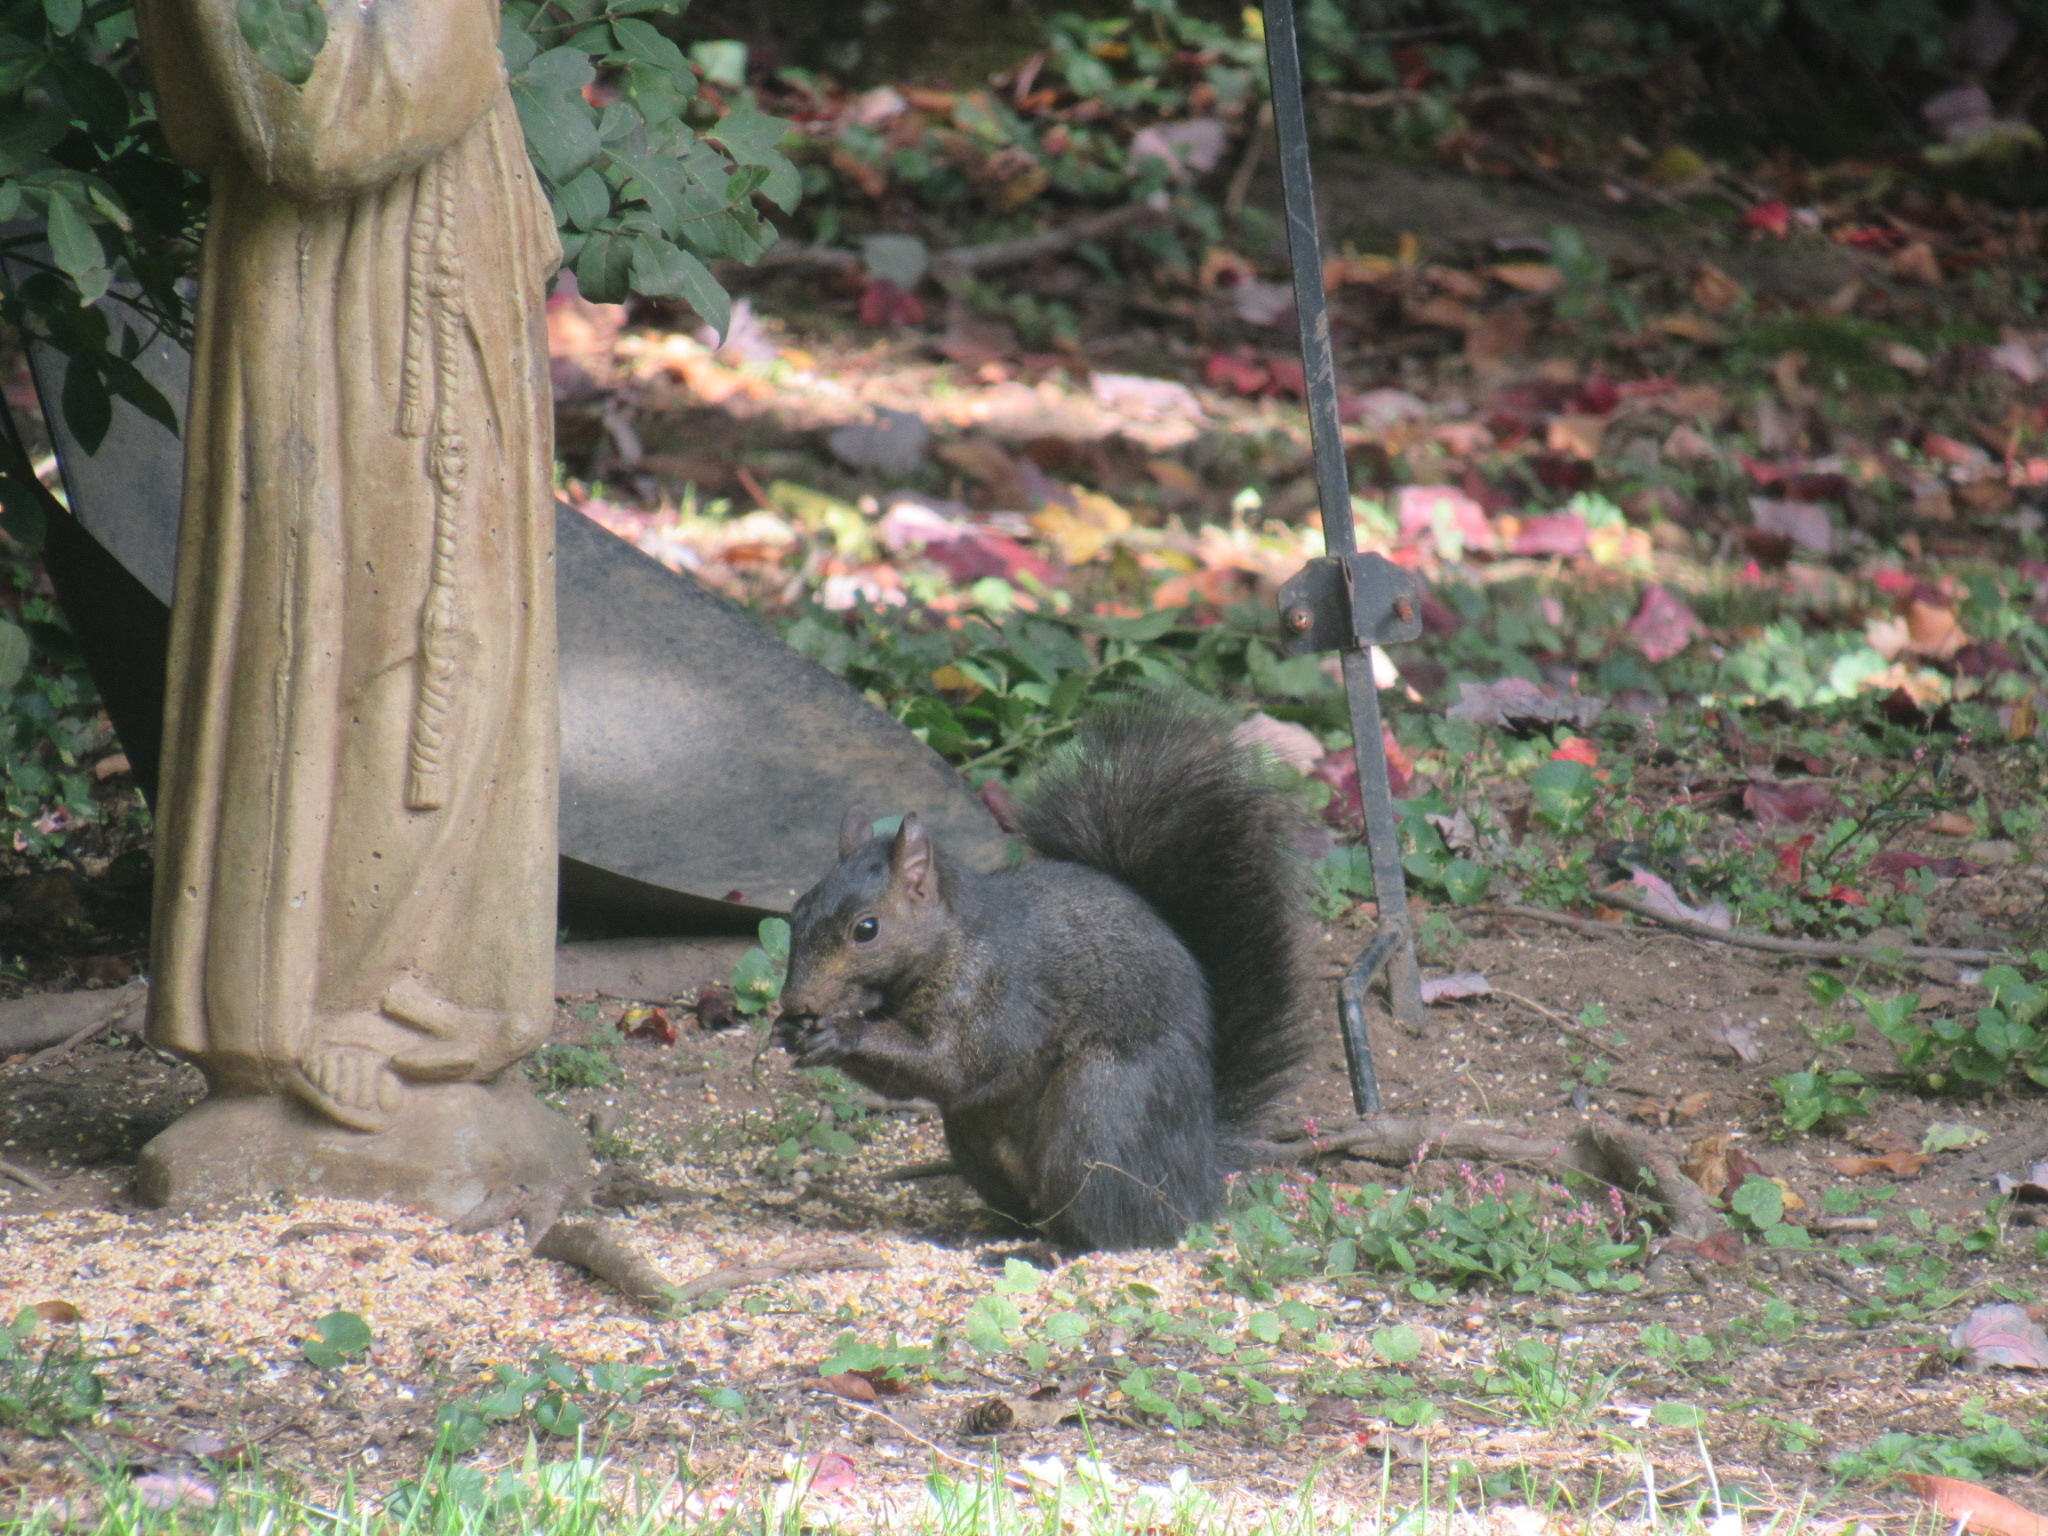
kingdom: Animalia
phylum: Chordata
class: Mammalia
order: Rodentia
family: Sciuridae
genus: Sciurus
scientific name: Sciurus carolinensis
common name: Eastern gray squirrel
